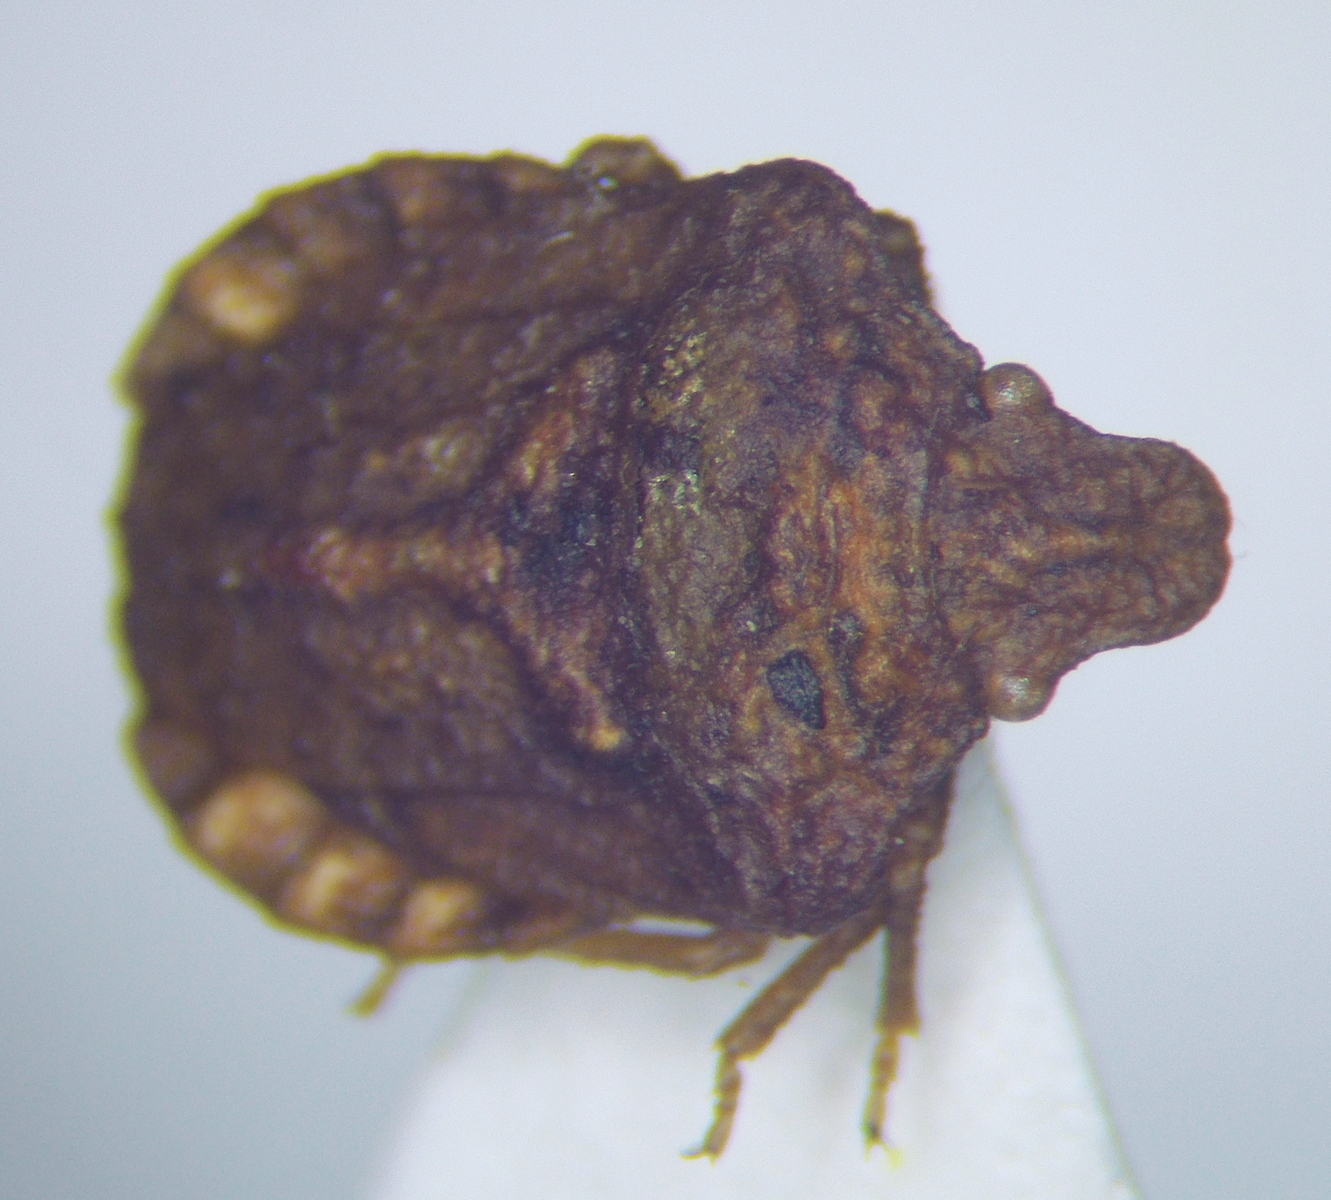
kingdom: Animalia
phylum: Arthropoda
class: Insecta
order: Hemiptera
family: Pentatomidae
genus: Leprosoma
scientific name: Leprosoma tuberculatum
